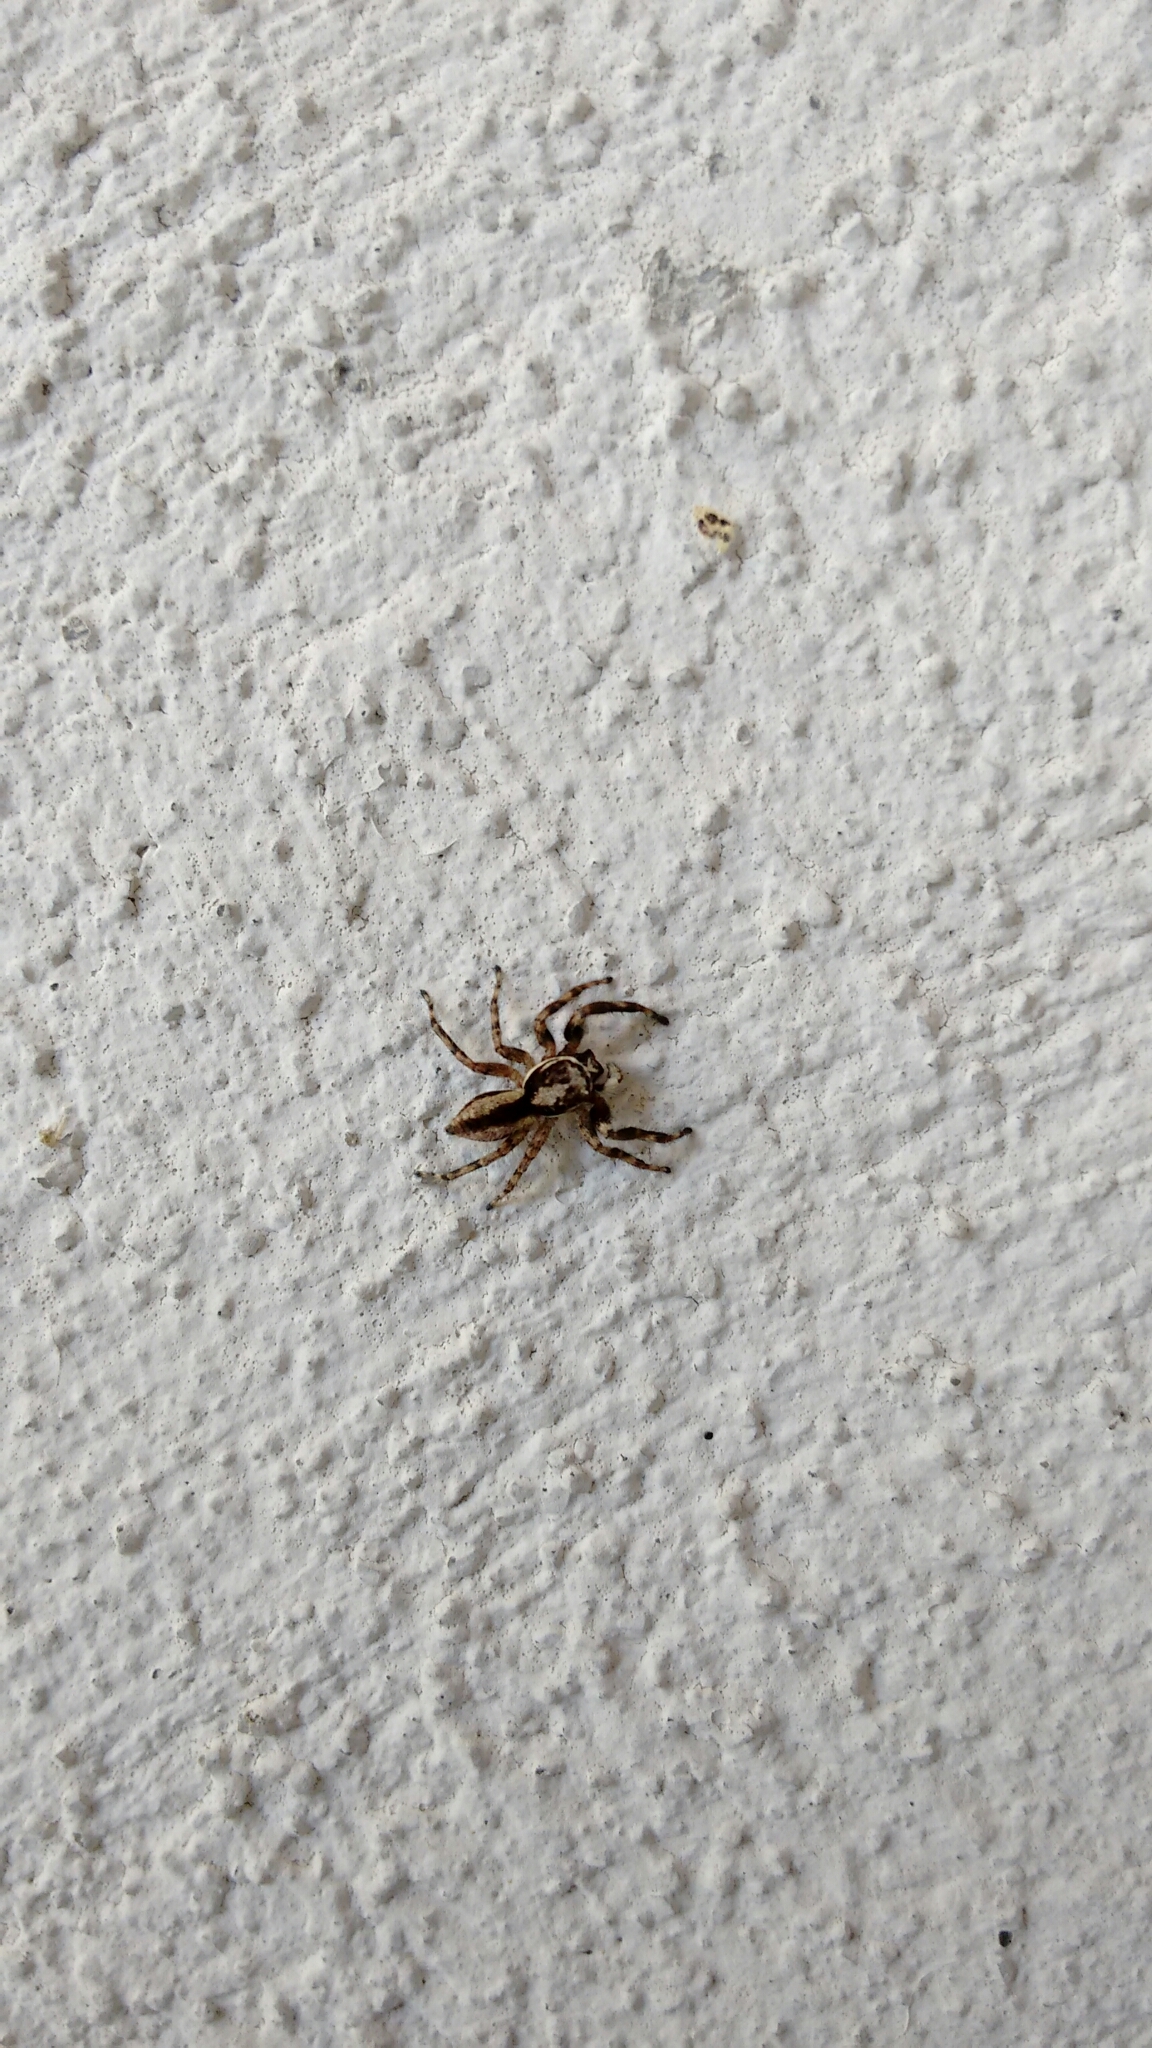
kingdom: Animalia
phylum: Arthropoda
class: Arachnida
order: Araneae
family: Salticidae
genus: Menemerus
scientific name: Menemerus bivittatus
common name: Gray wall jumper
